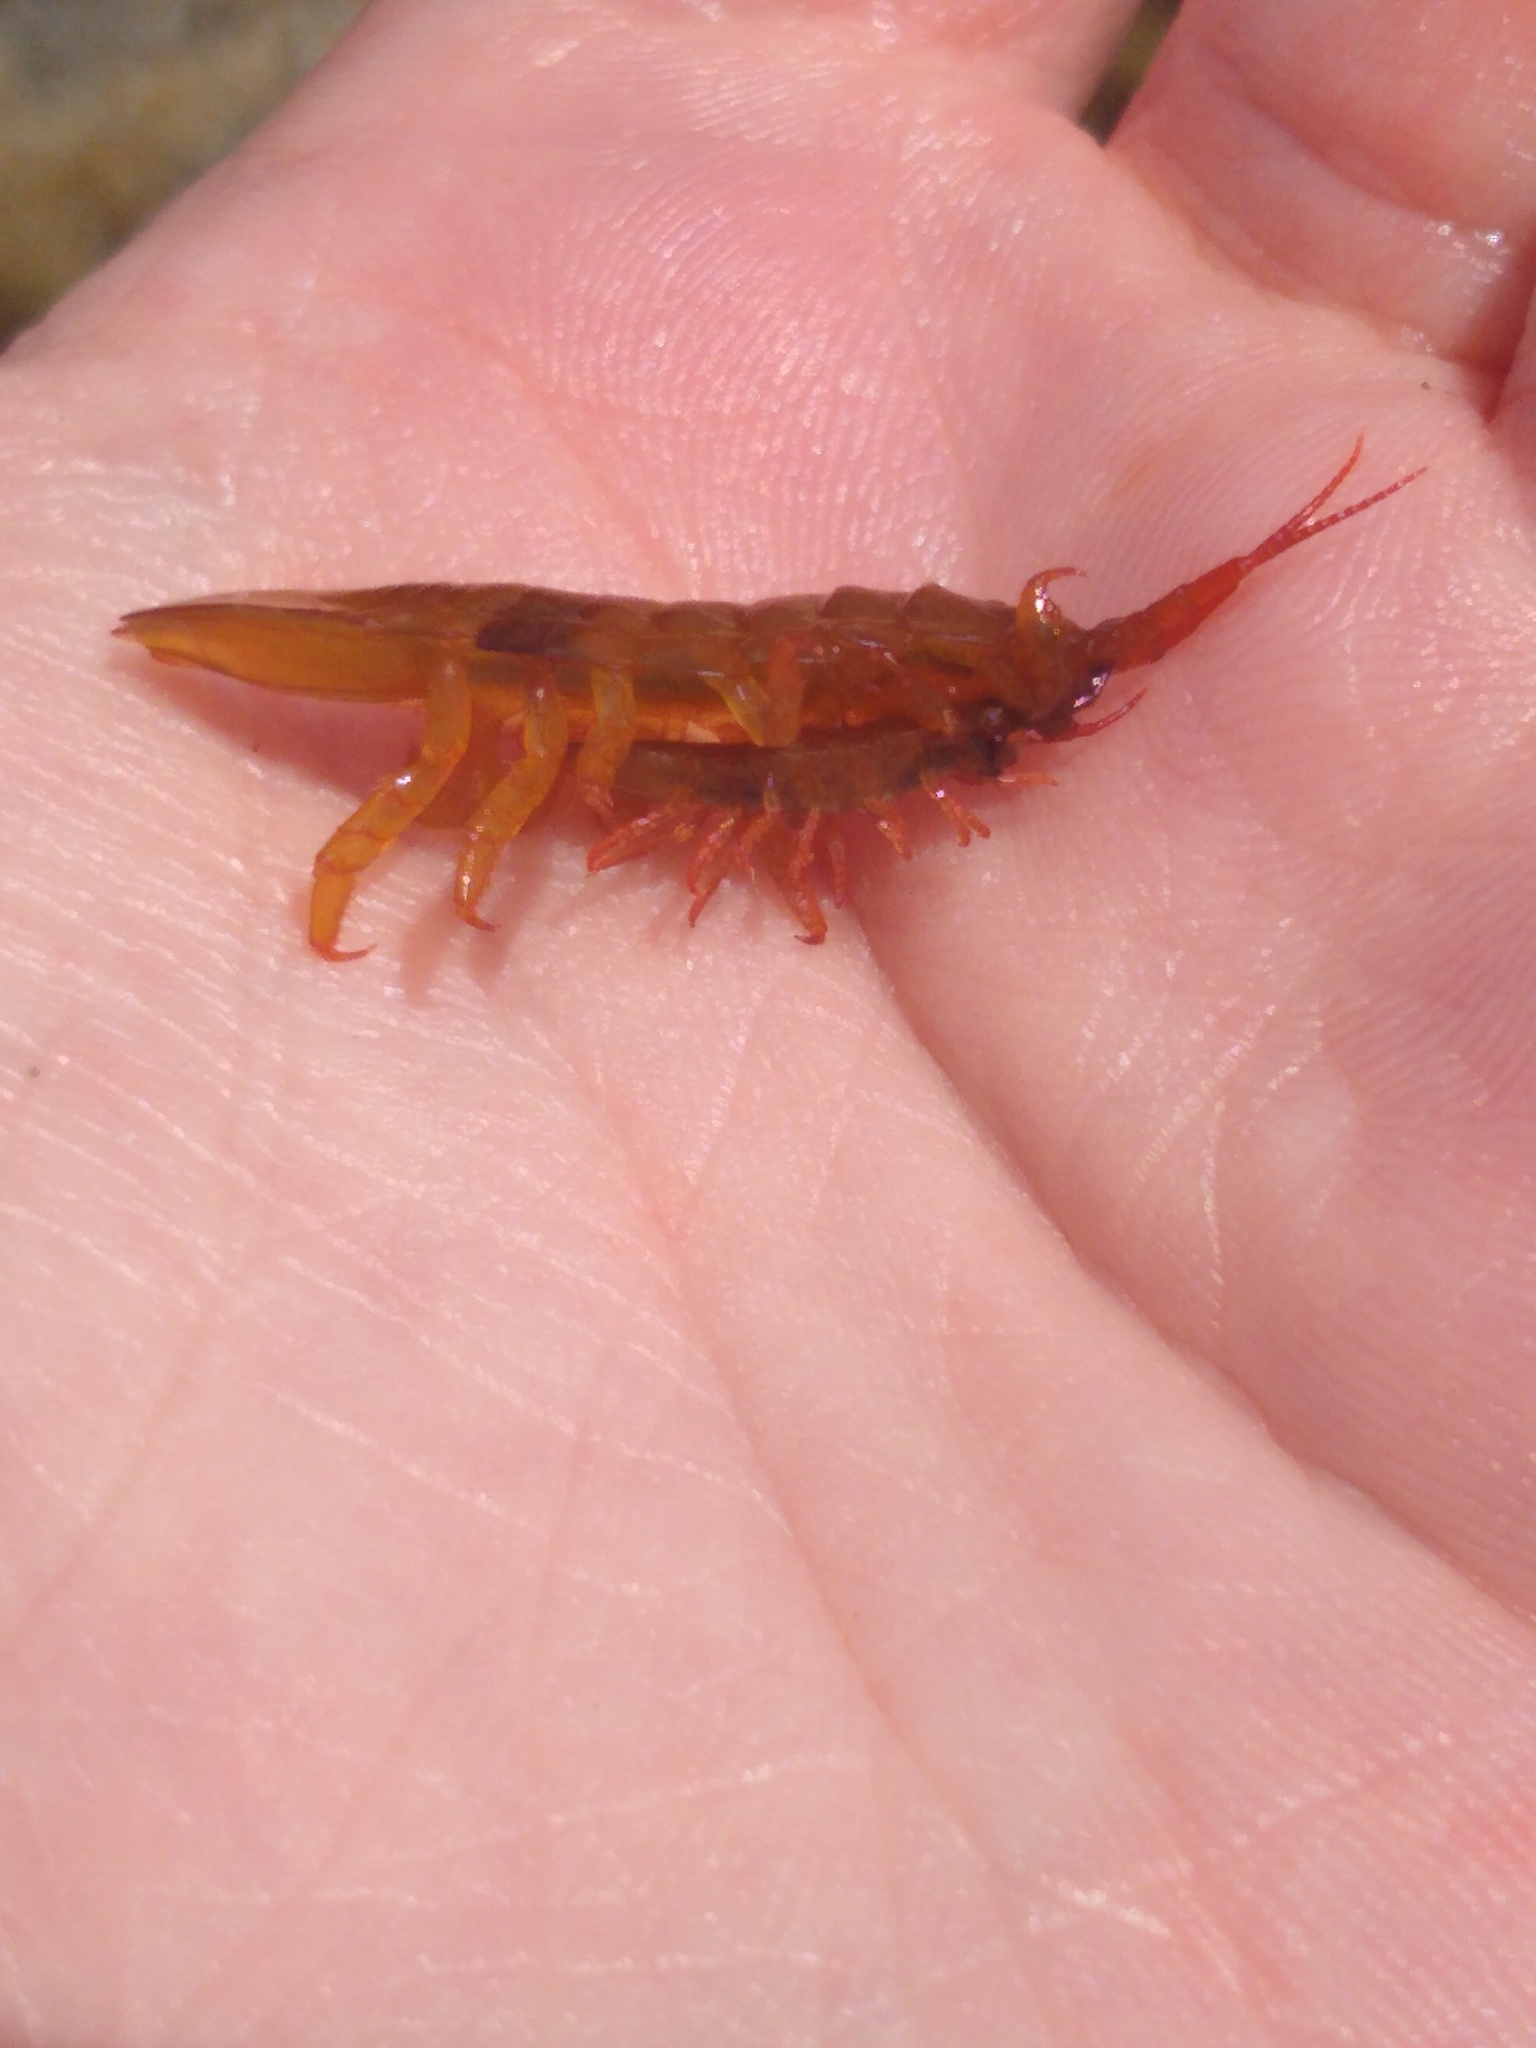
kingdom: Animalia
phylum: Arthropoda
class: Malacostraca
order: Isopoda
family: Idoteidae
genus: Idotea
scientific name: Idotea balthica
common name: Baltic isopod
